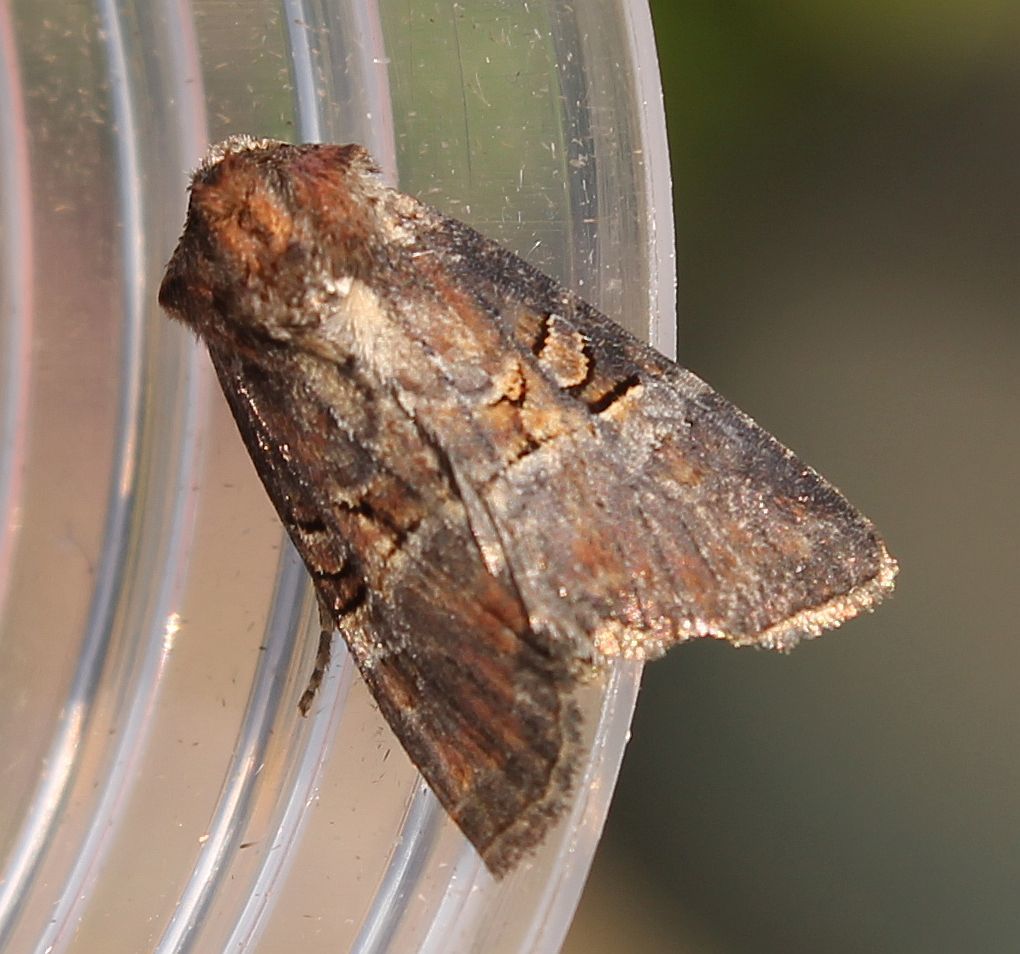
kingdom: Animalia
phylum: Arthropoda
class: Insecta
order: Lepidoptera
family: Noctuidae
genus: Litoligia
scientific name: Litoligia literosa
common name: Rosy minor
